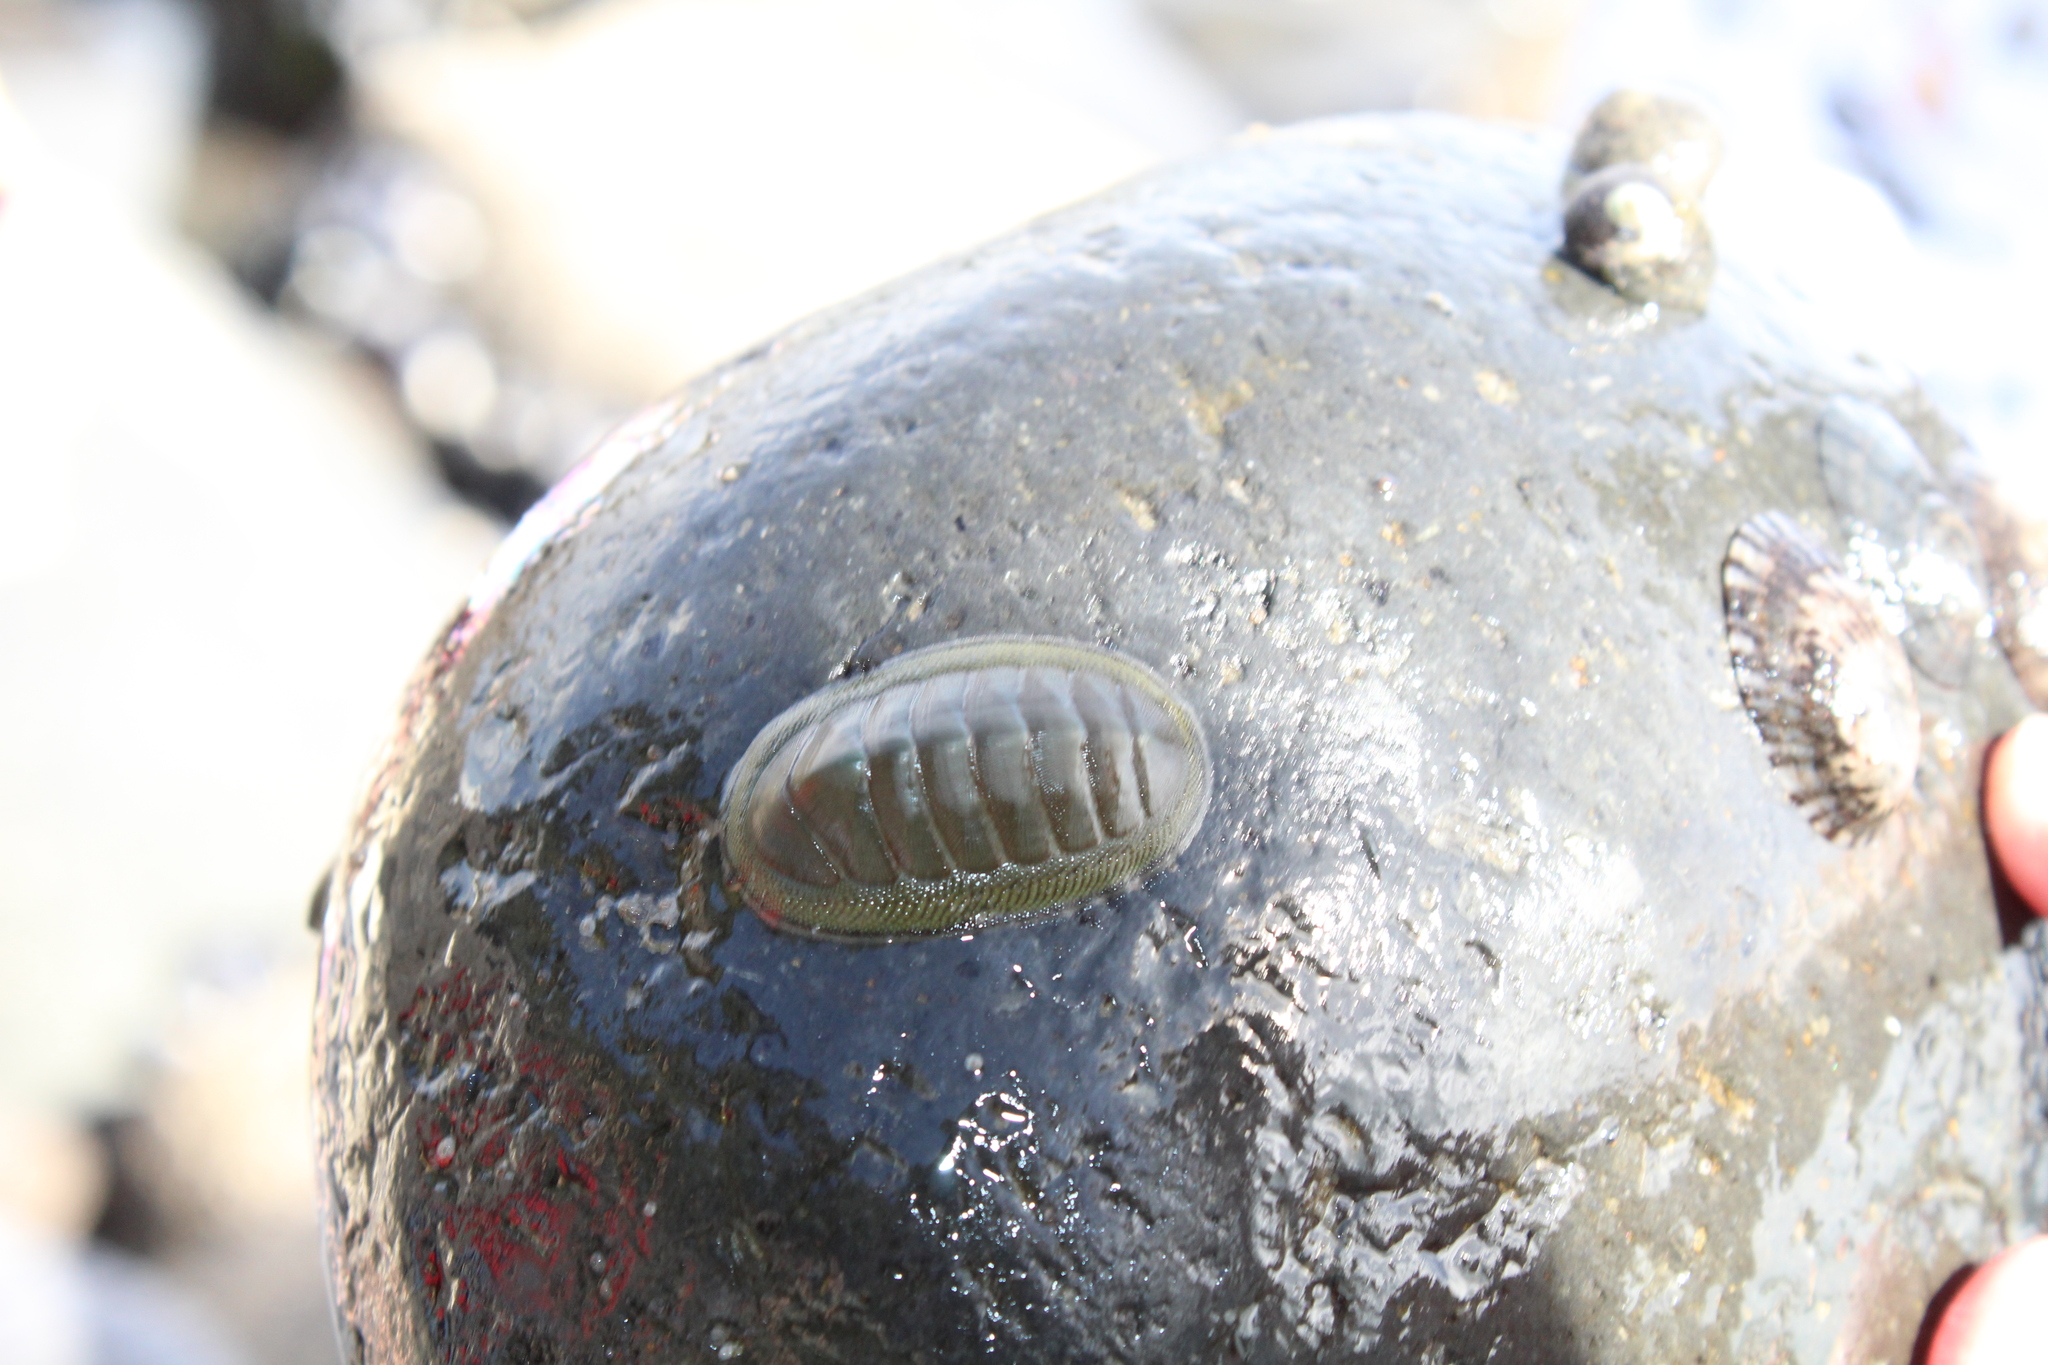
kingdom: Animalia
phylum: Mollusca
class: Polyplacophora
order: Chitonida
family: Chitonidae
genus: Chiton
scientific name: Chiton glaucus
